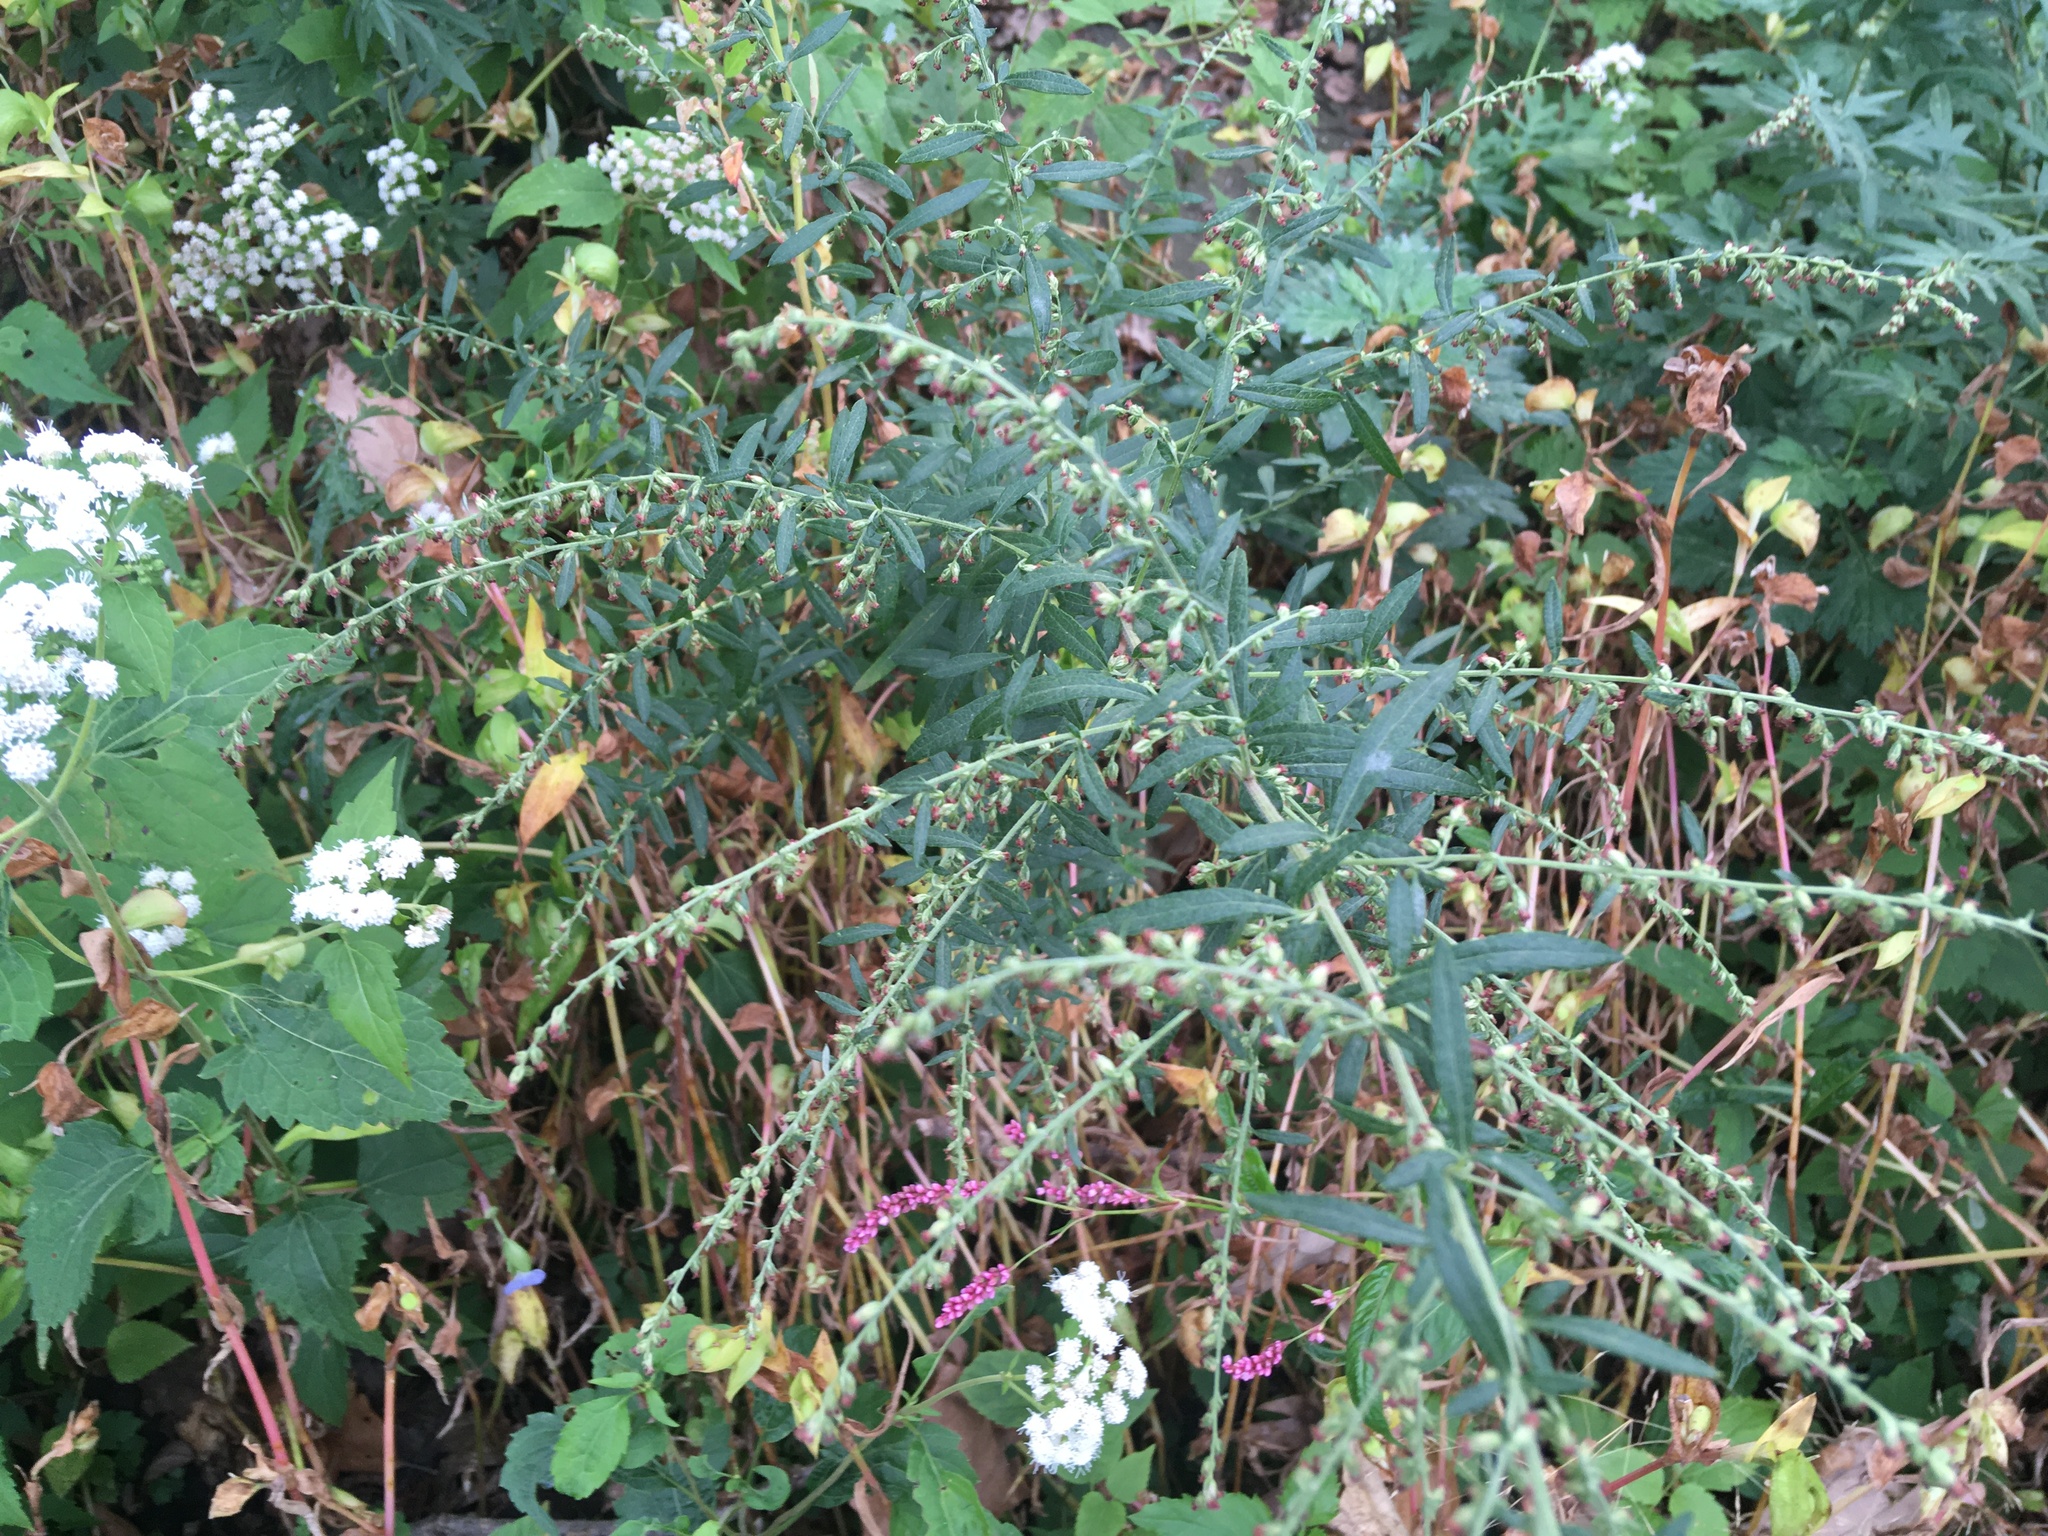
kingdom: Plantae
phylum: Tracheophyta
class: Magnoliopsida
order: Asterales
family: Asteraceae
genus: Artemisia
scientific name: Artemisia vulgaris
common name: Mugwort
